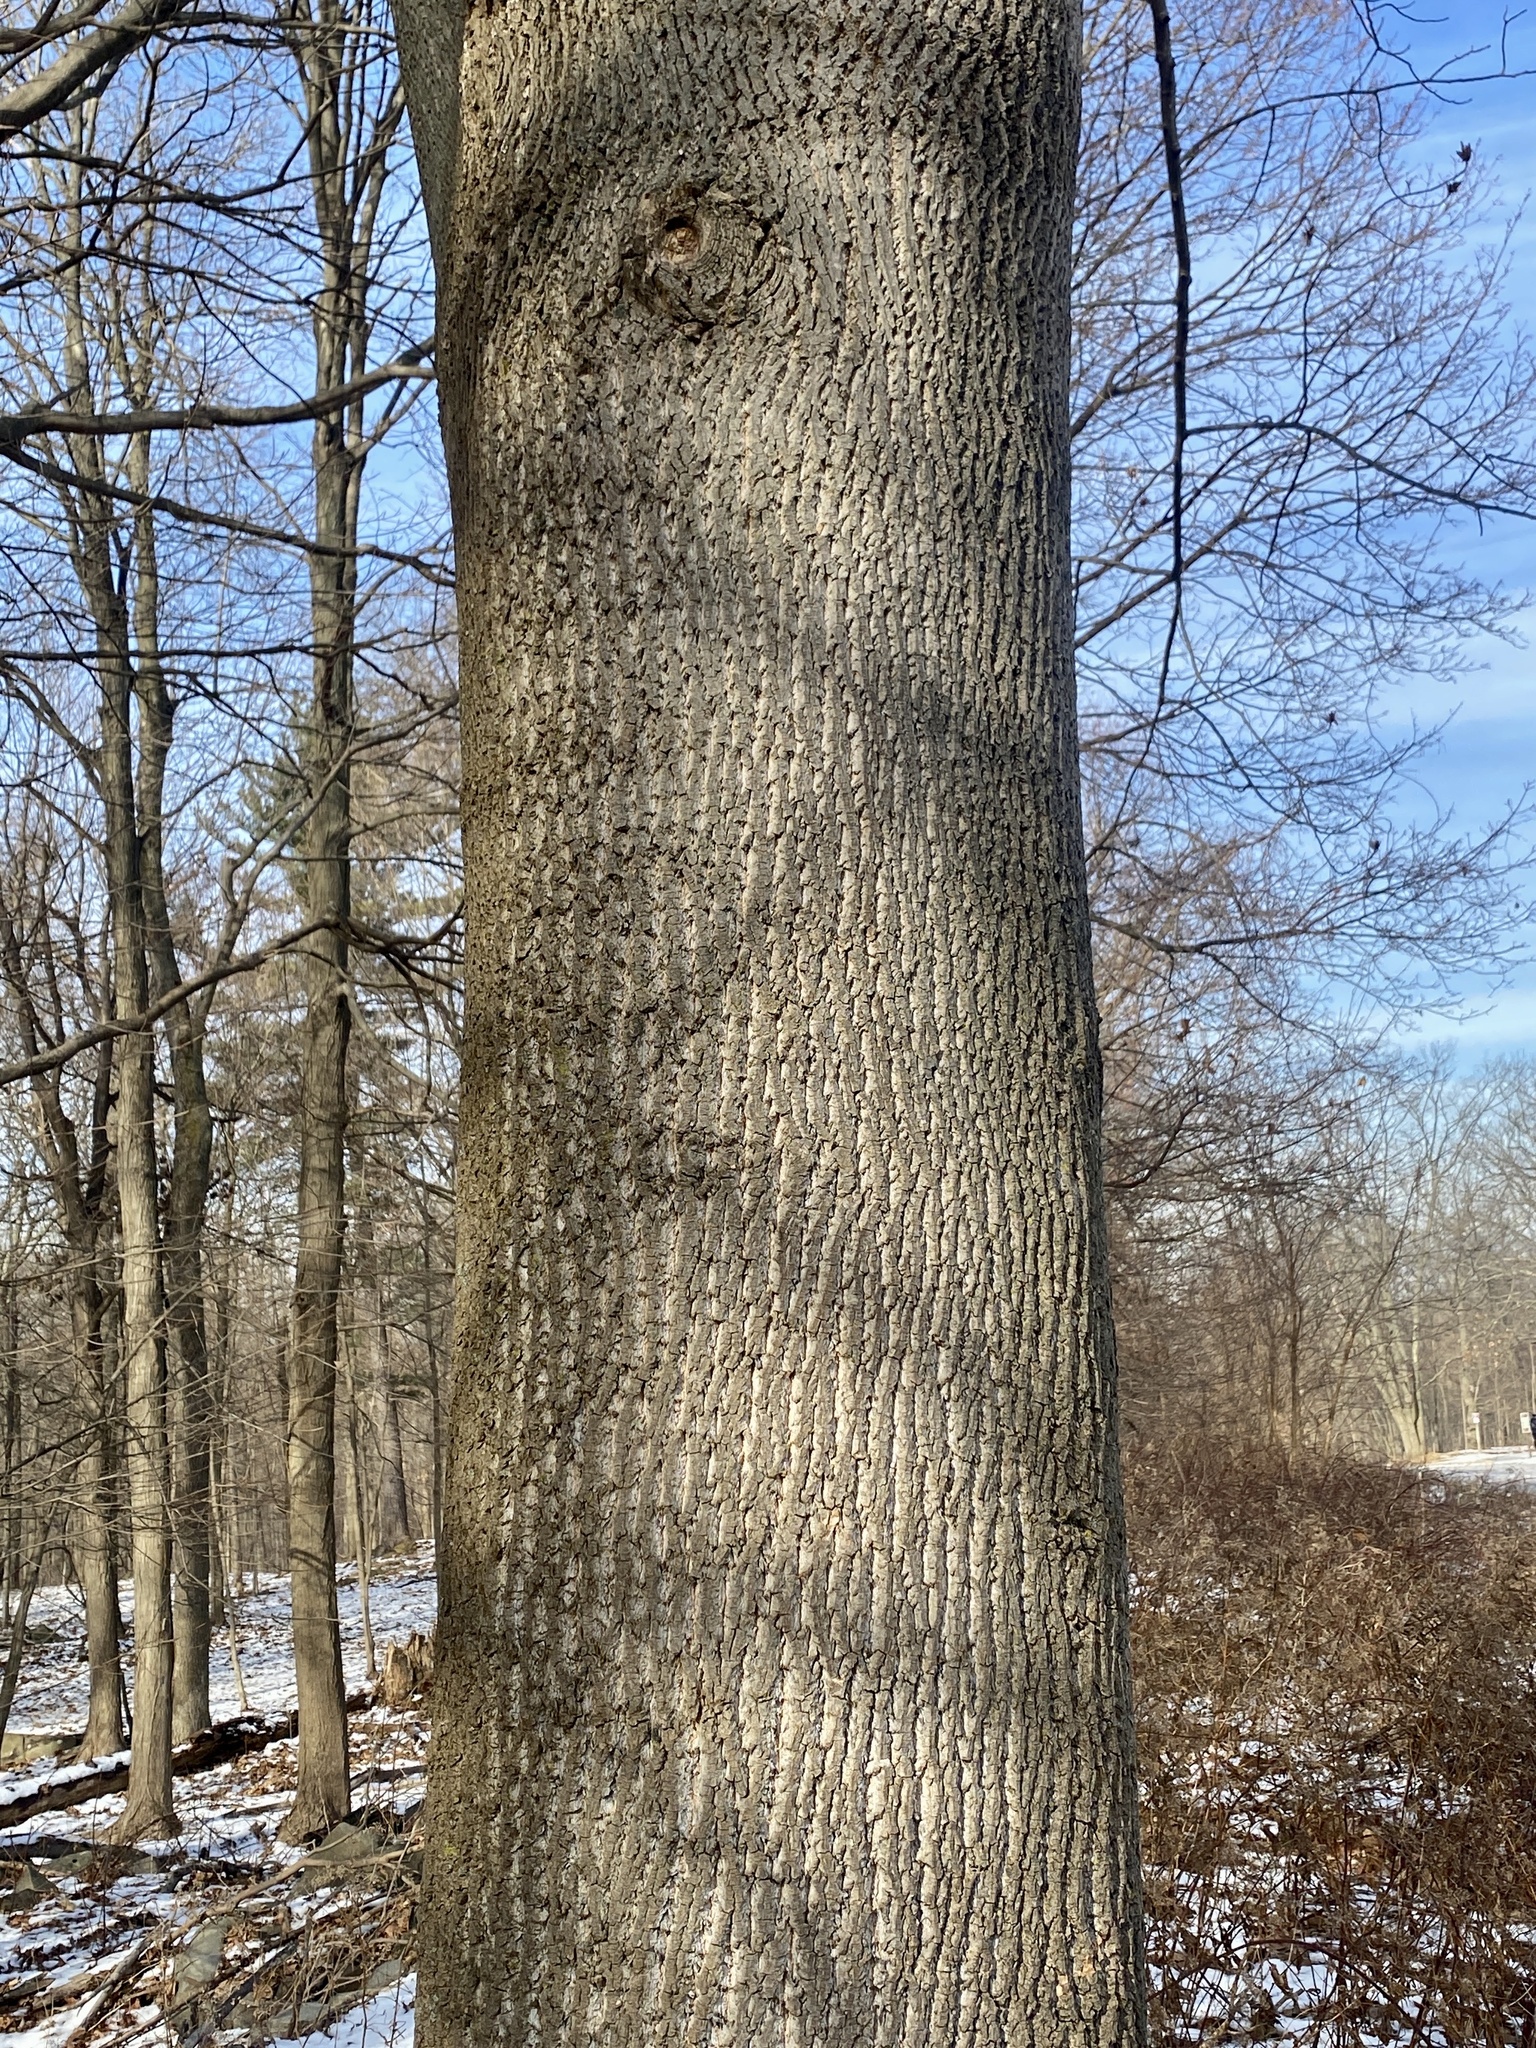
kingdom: Plantae
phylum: Tracheophyta
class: Magnoliopsida
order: Magnoliales
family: Magnoliaceae
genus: Liriodendron
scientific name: Liriodendron tulipifera
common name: Tulip tree
